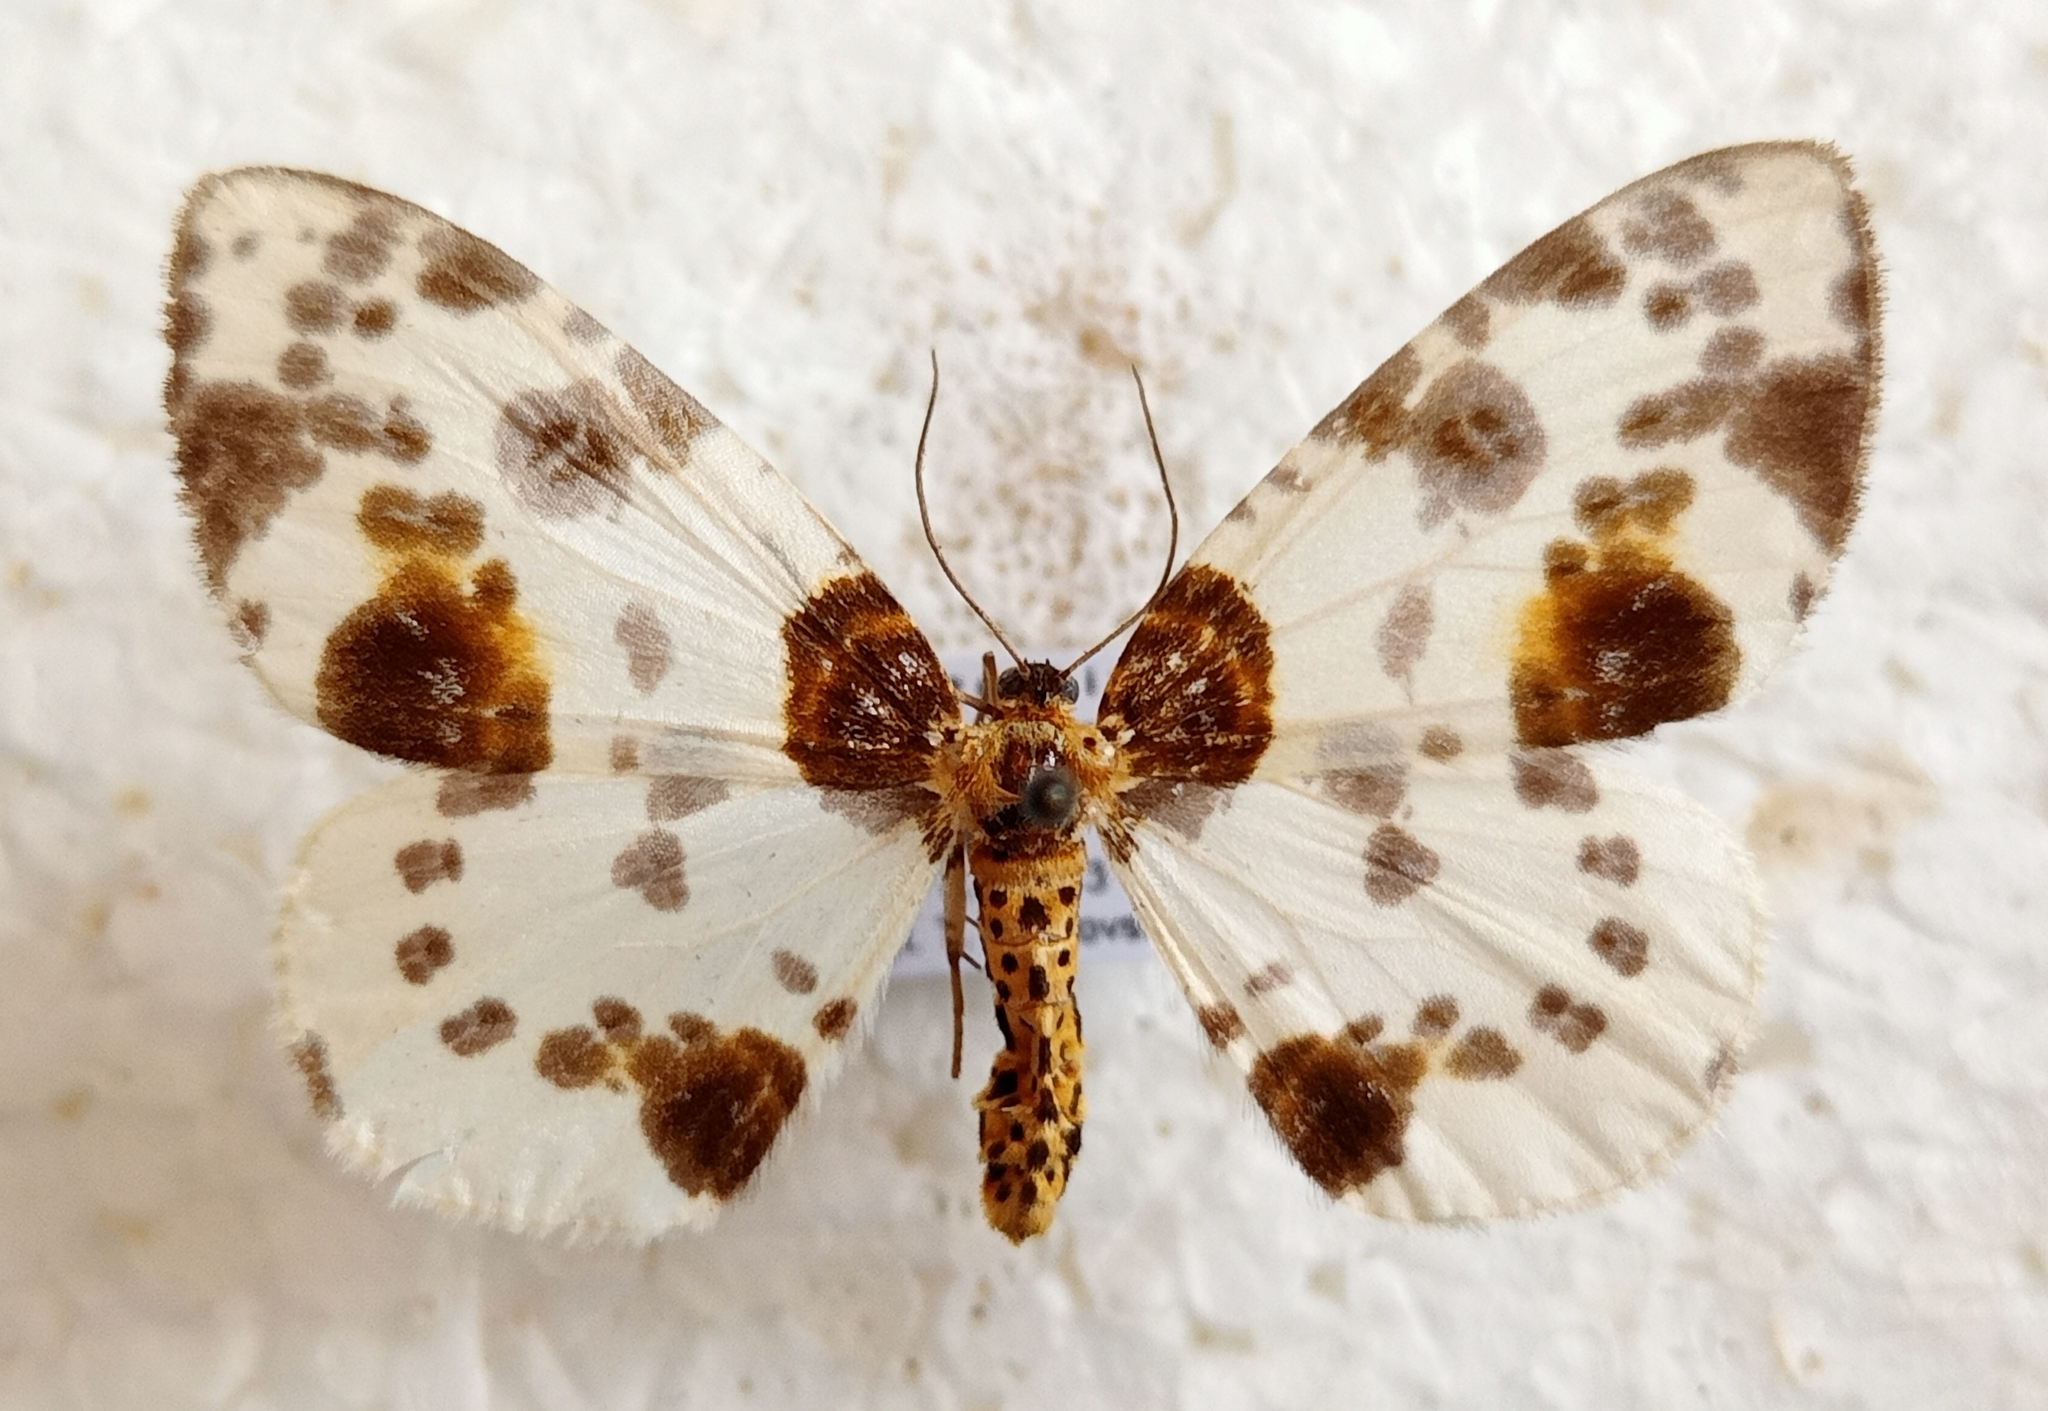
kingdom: Animalia
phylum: Arthropoda
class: Insecta
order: Lepidoptera
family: Geometridae
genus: Abraxas
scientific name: Abraxas sylvata
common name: Clouded magpie
